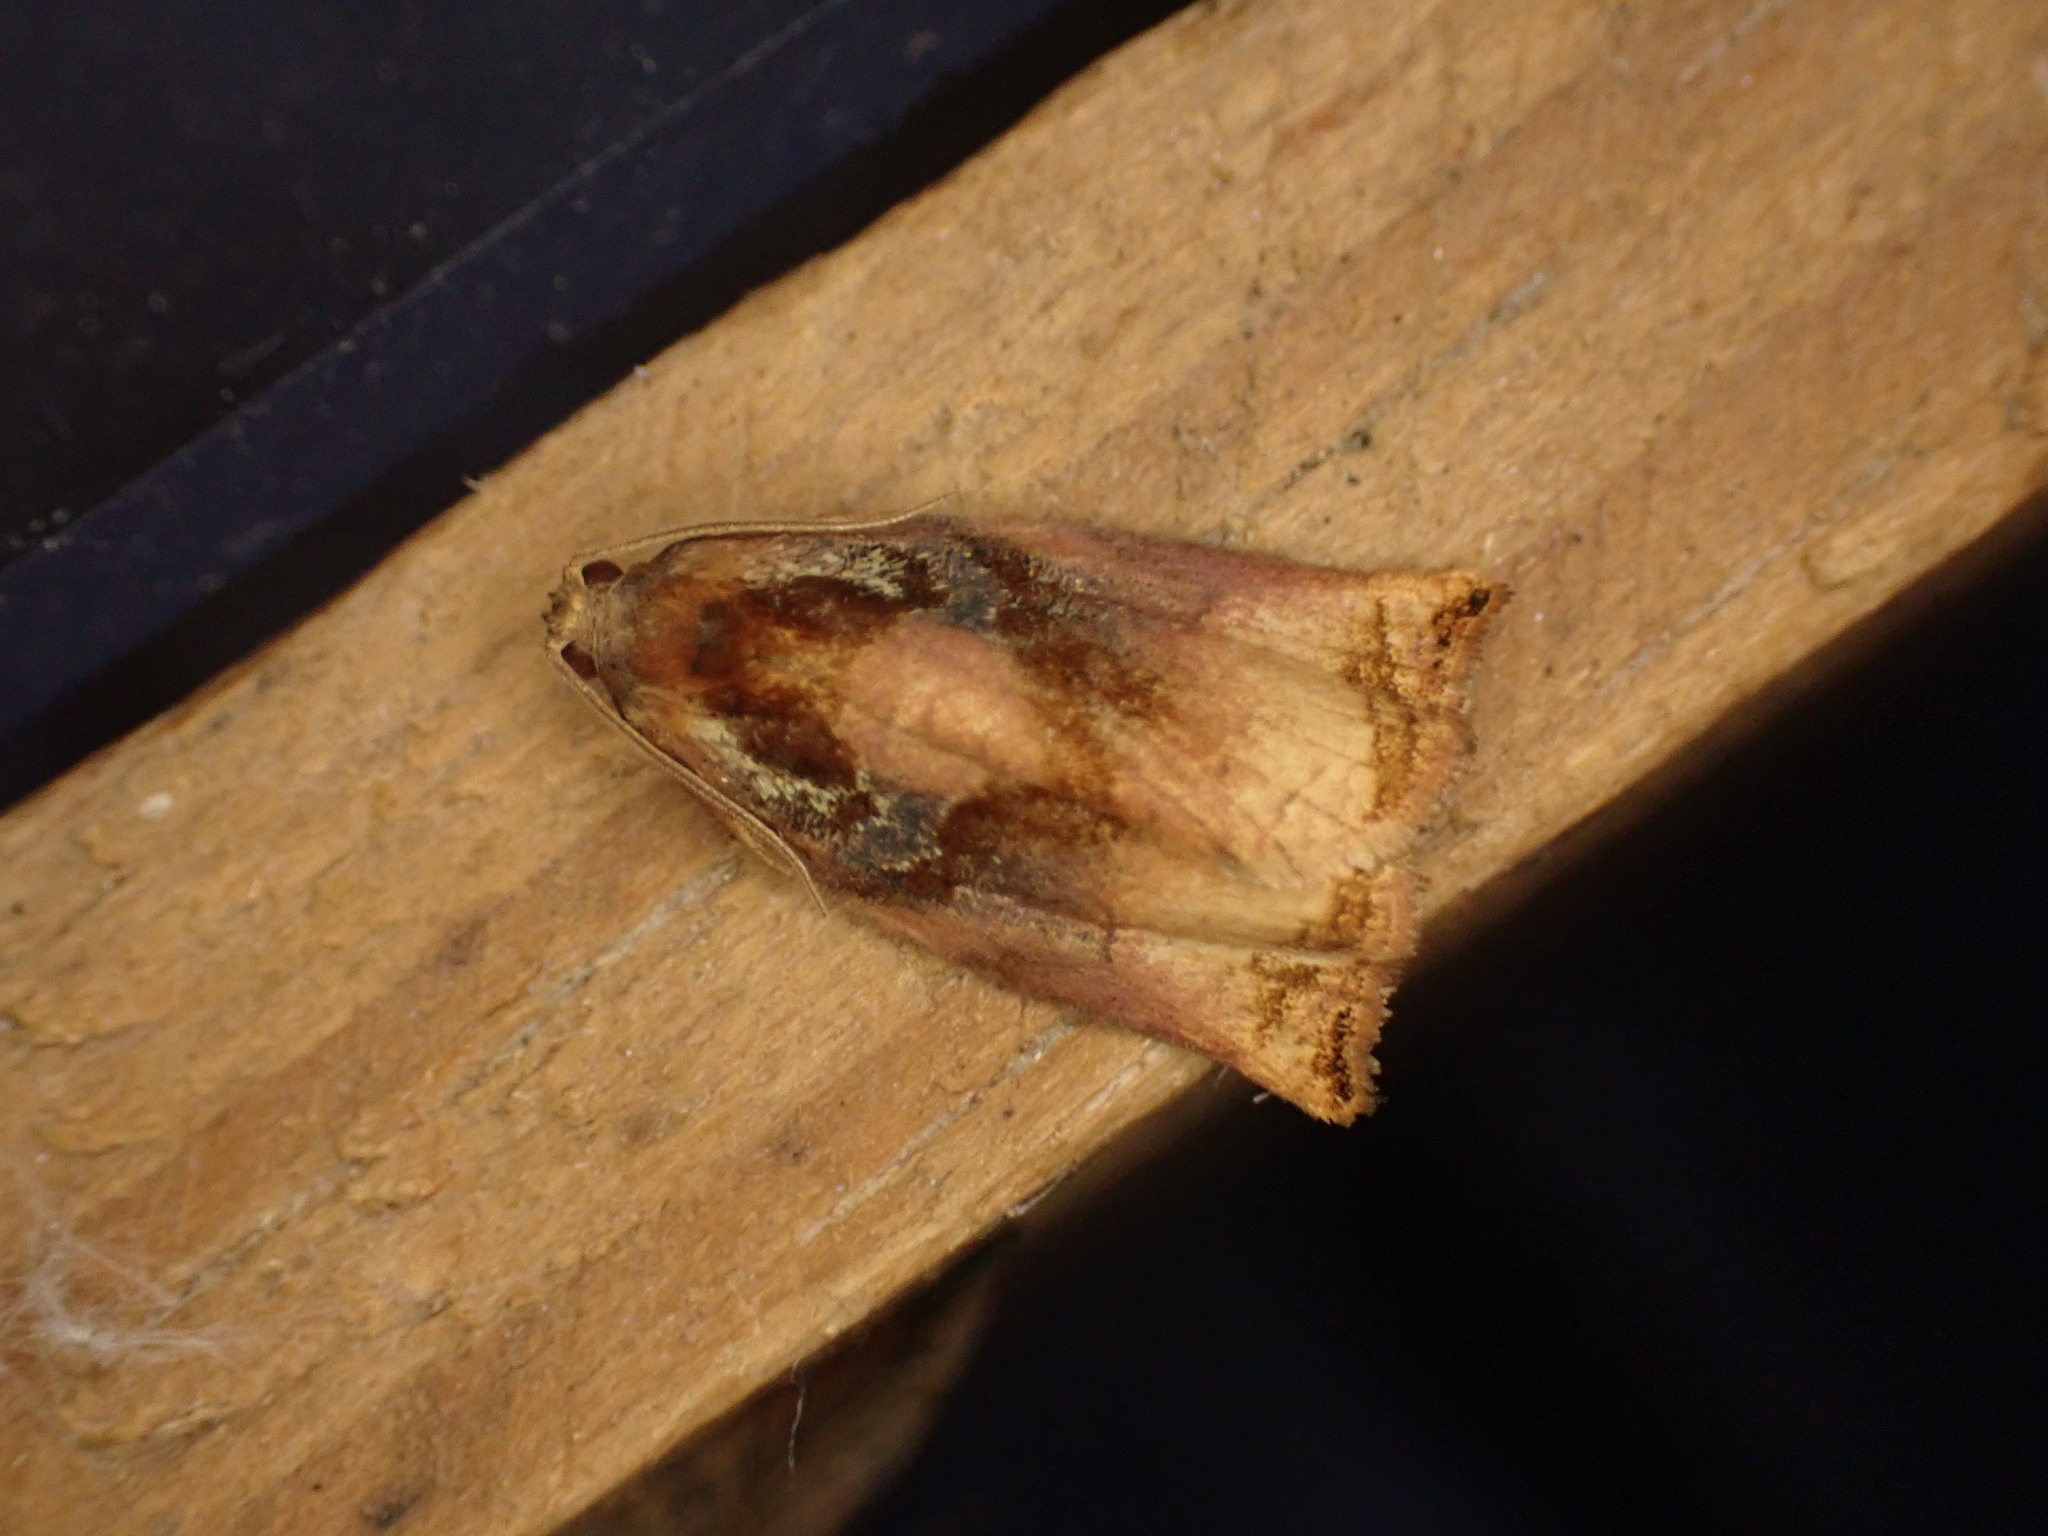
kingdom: Animalia
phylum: Arthropoda
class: Insecta
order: Lepidoptera
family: Tortricidae
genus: Archips
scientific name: Archips podana
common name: Large fruit-tree tortrix
